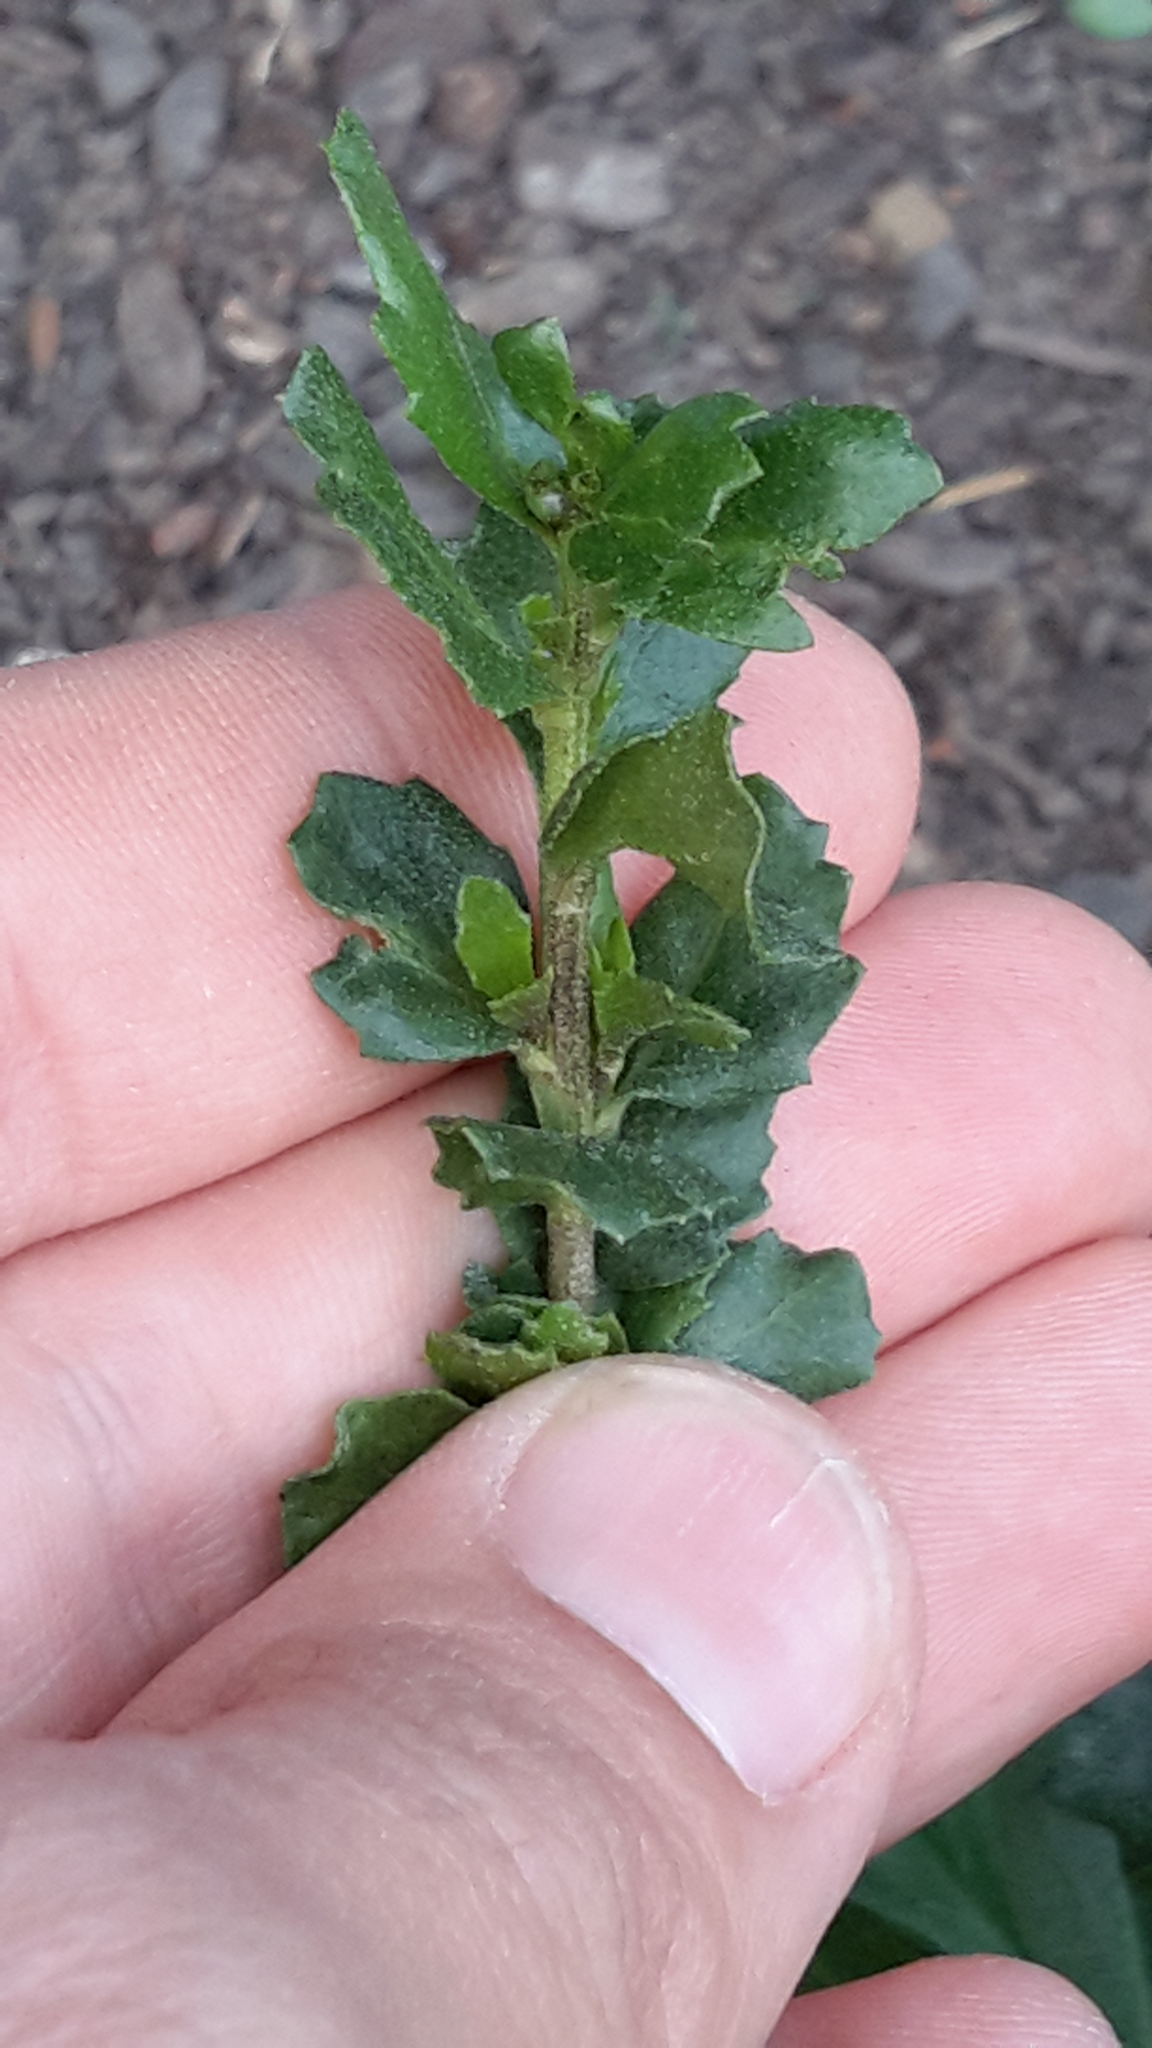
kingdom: Plantae
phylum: Tracheophyta
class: Magnoliopsida
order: Asterales
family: Asteraceae
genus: Baccharis
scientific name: Baccharis pilularis
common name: Coyotebrush
